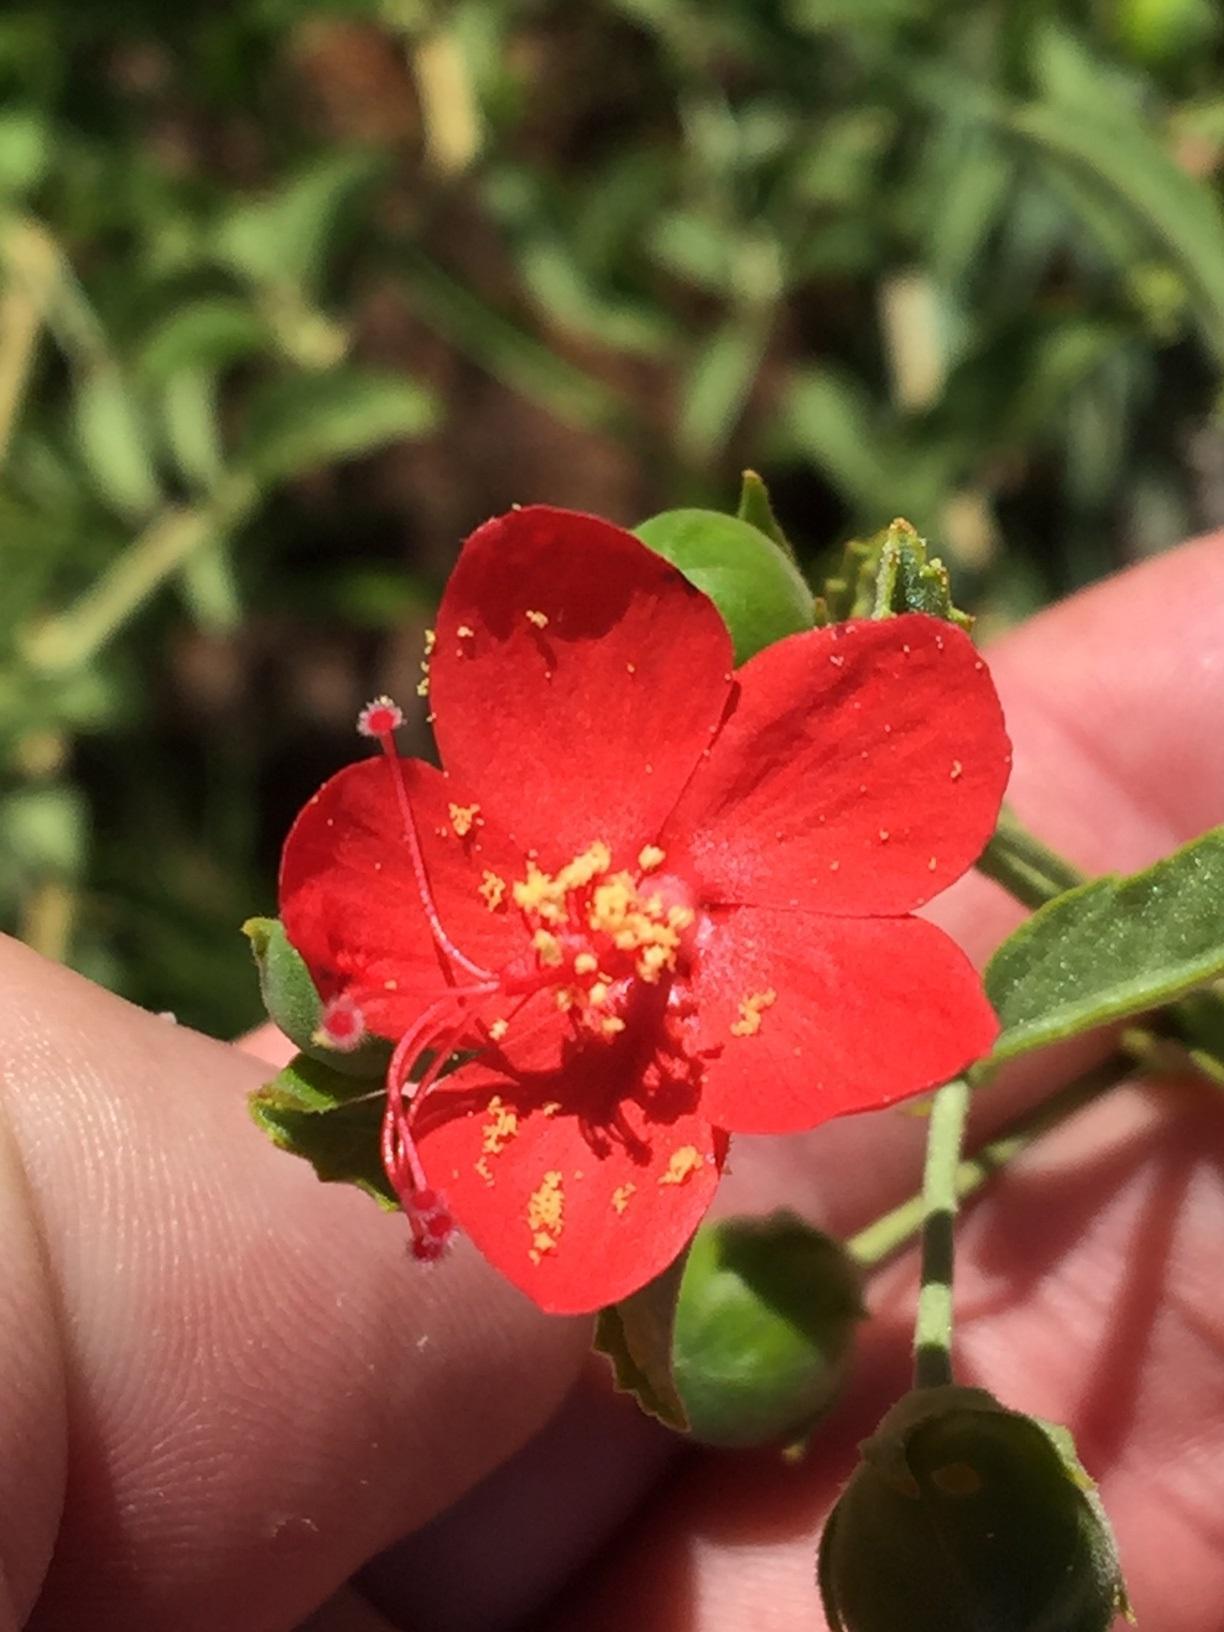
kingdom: Plantae
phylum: Tracheophyta
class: Magnoliopsida
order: Malvales
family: Malvaceae
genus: Hibiscus
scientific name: Hibiscus elliottiae
